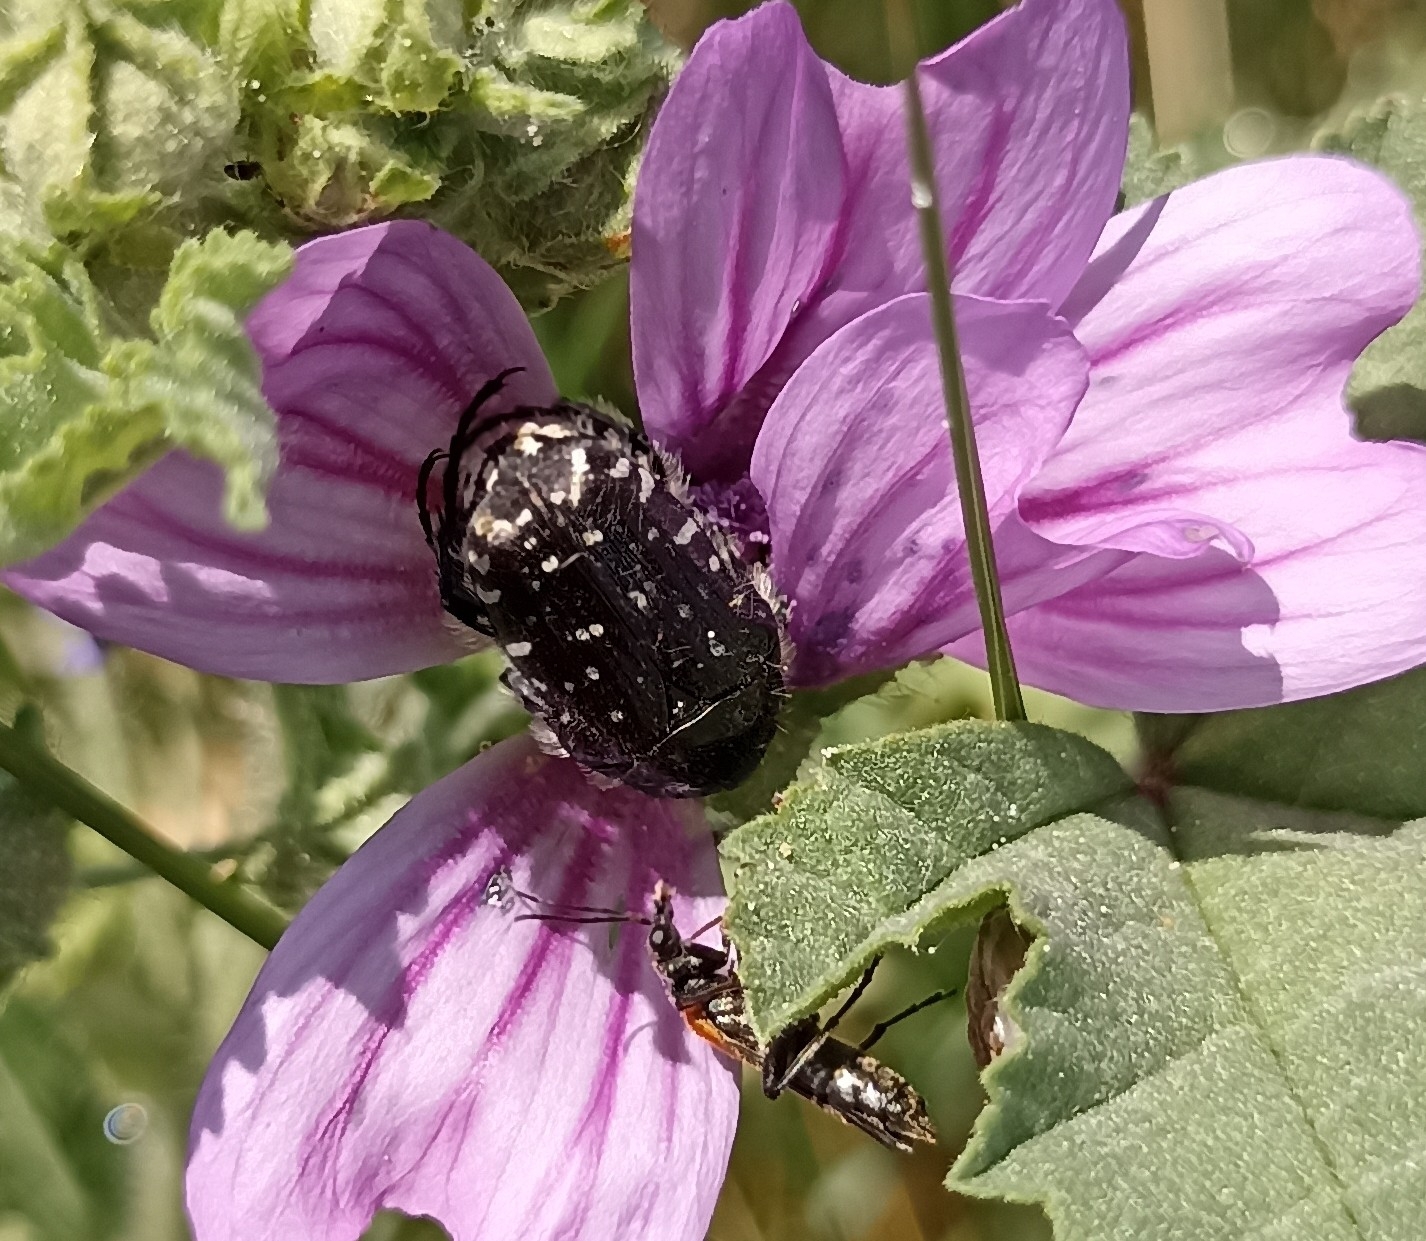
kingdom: Animalia
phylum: Arthropoda
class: Insecta
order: Coleoptera
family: Scarabaeidae
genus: Oxythyrea
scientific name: Oxythyrea funesta
